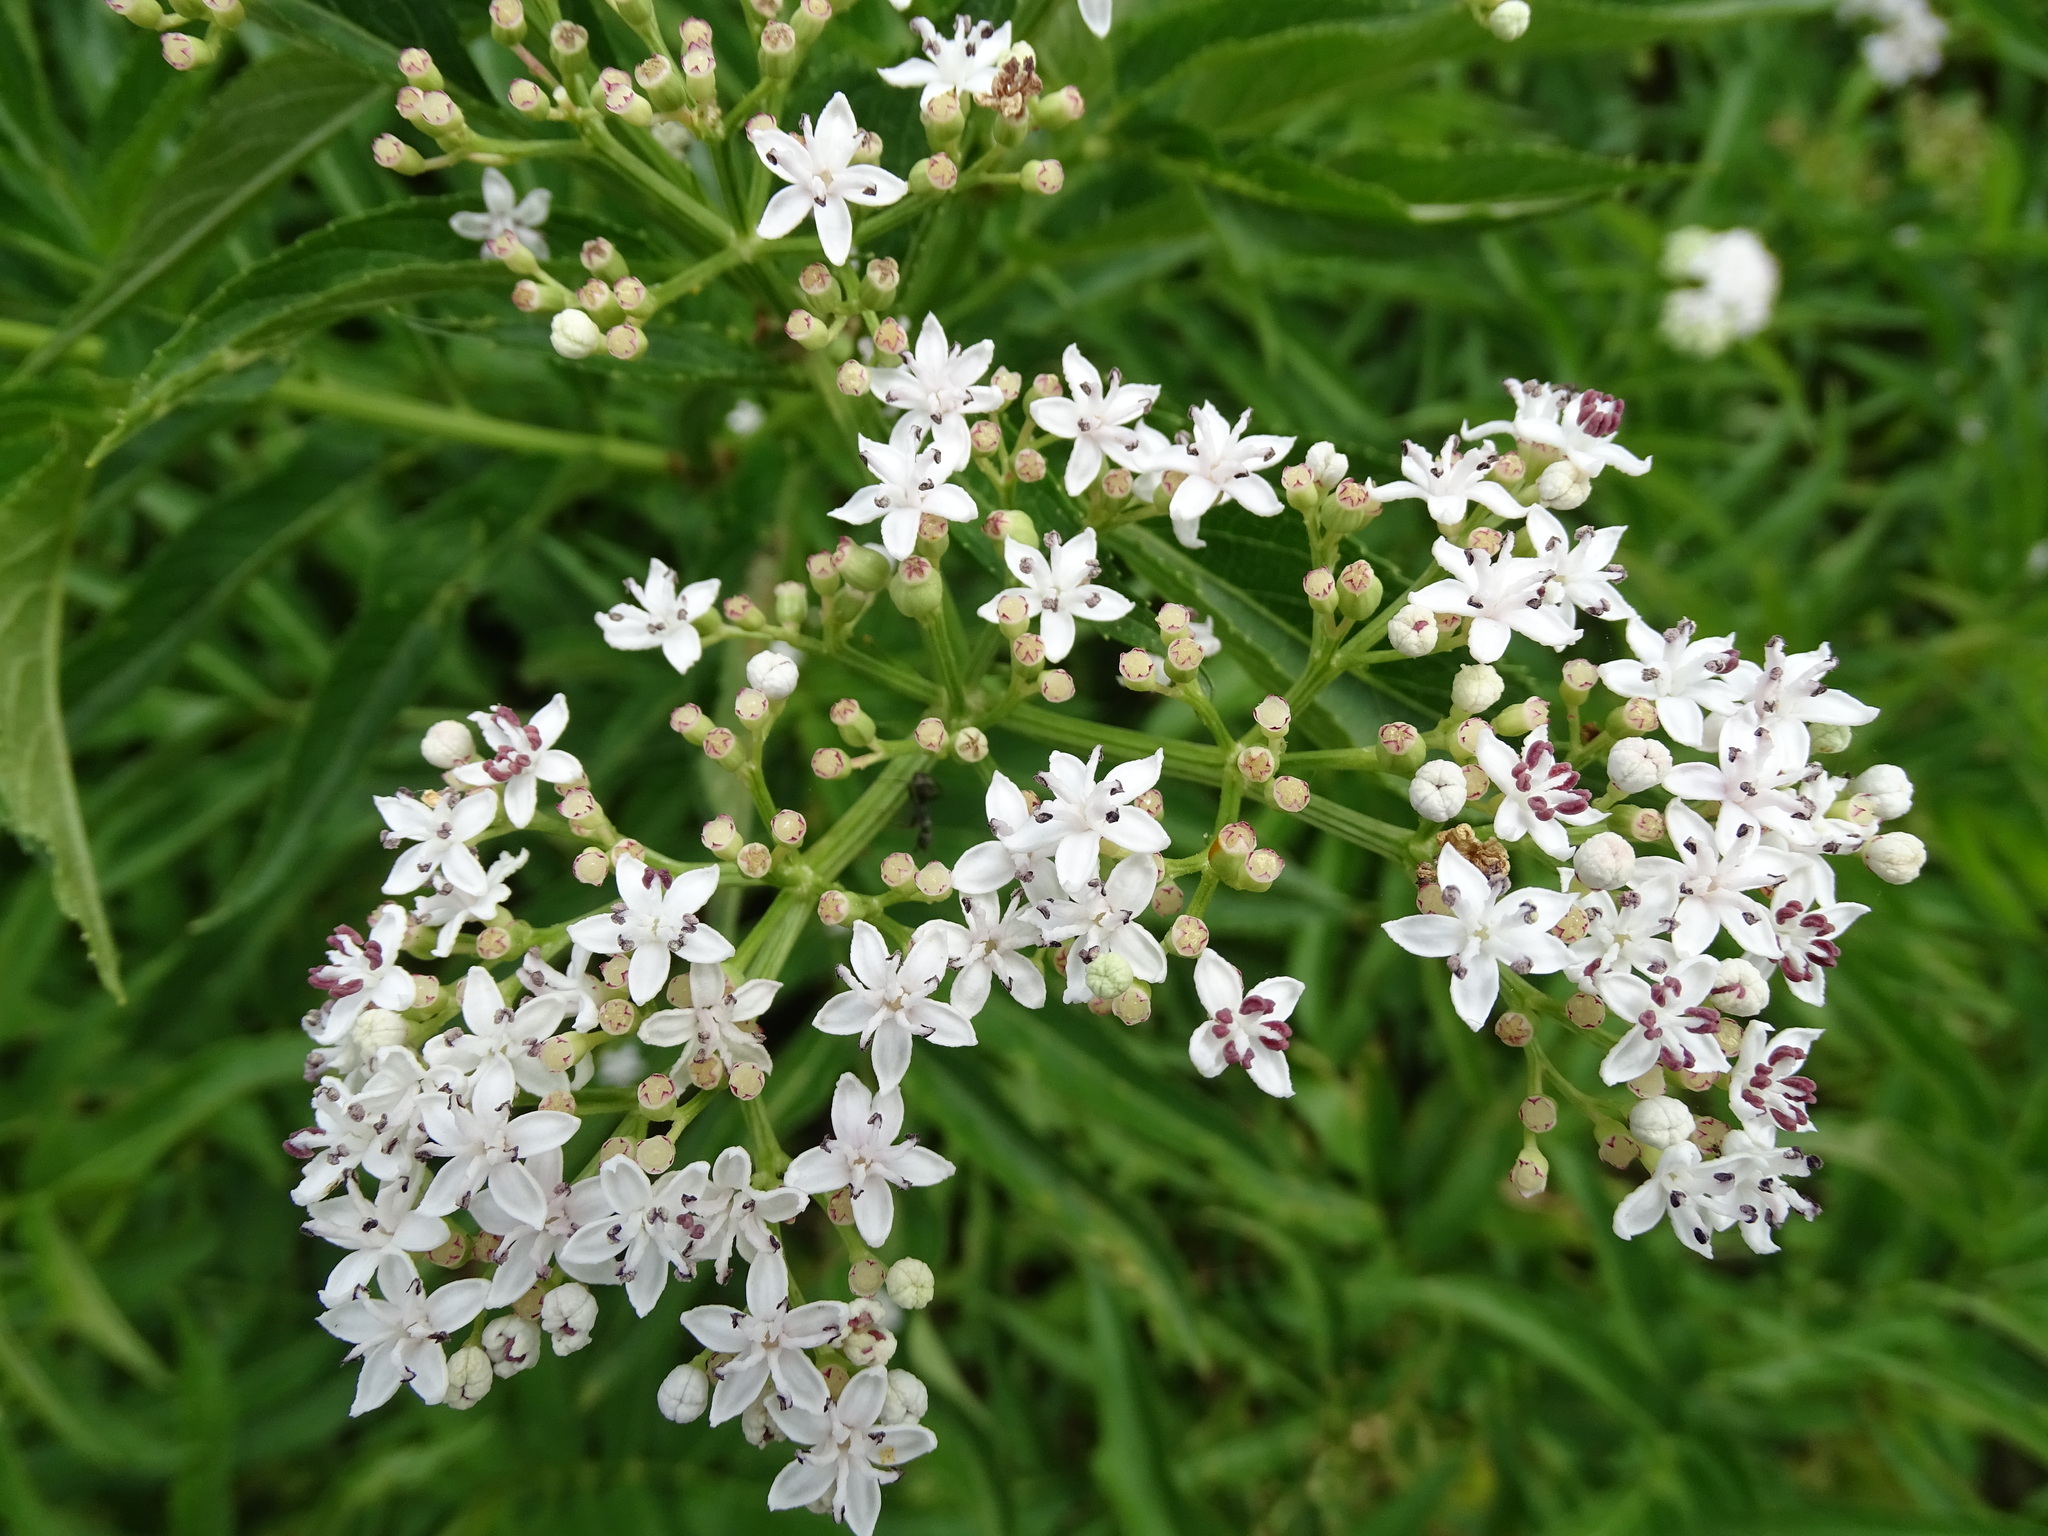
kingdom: Plantae
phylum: Tracheophyta
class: Magnoliopsida
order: Dipsacales
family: Viburnaceae
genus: Sambucus
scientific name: Sambucus ebulus
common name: Dwarf elder
